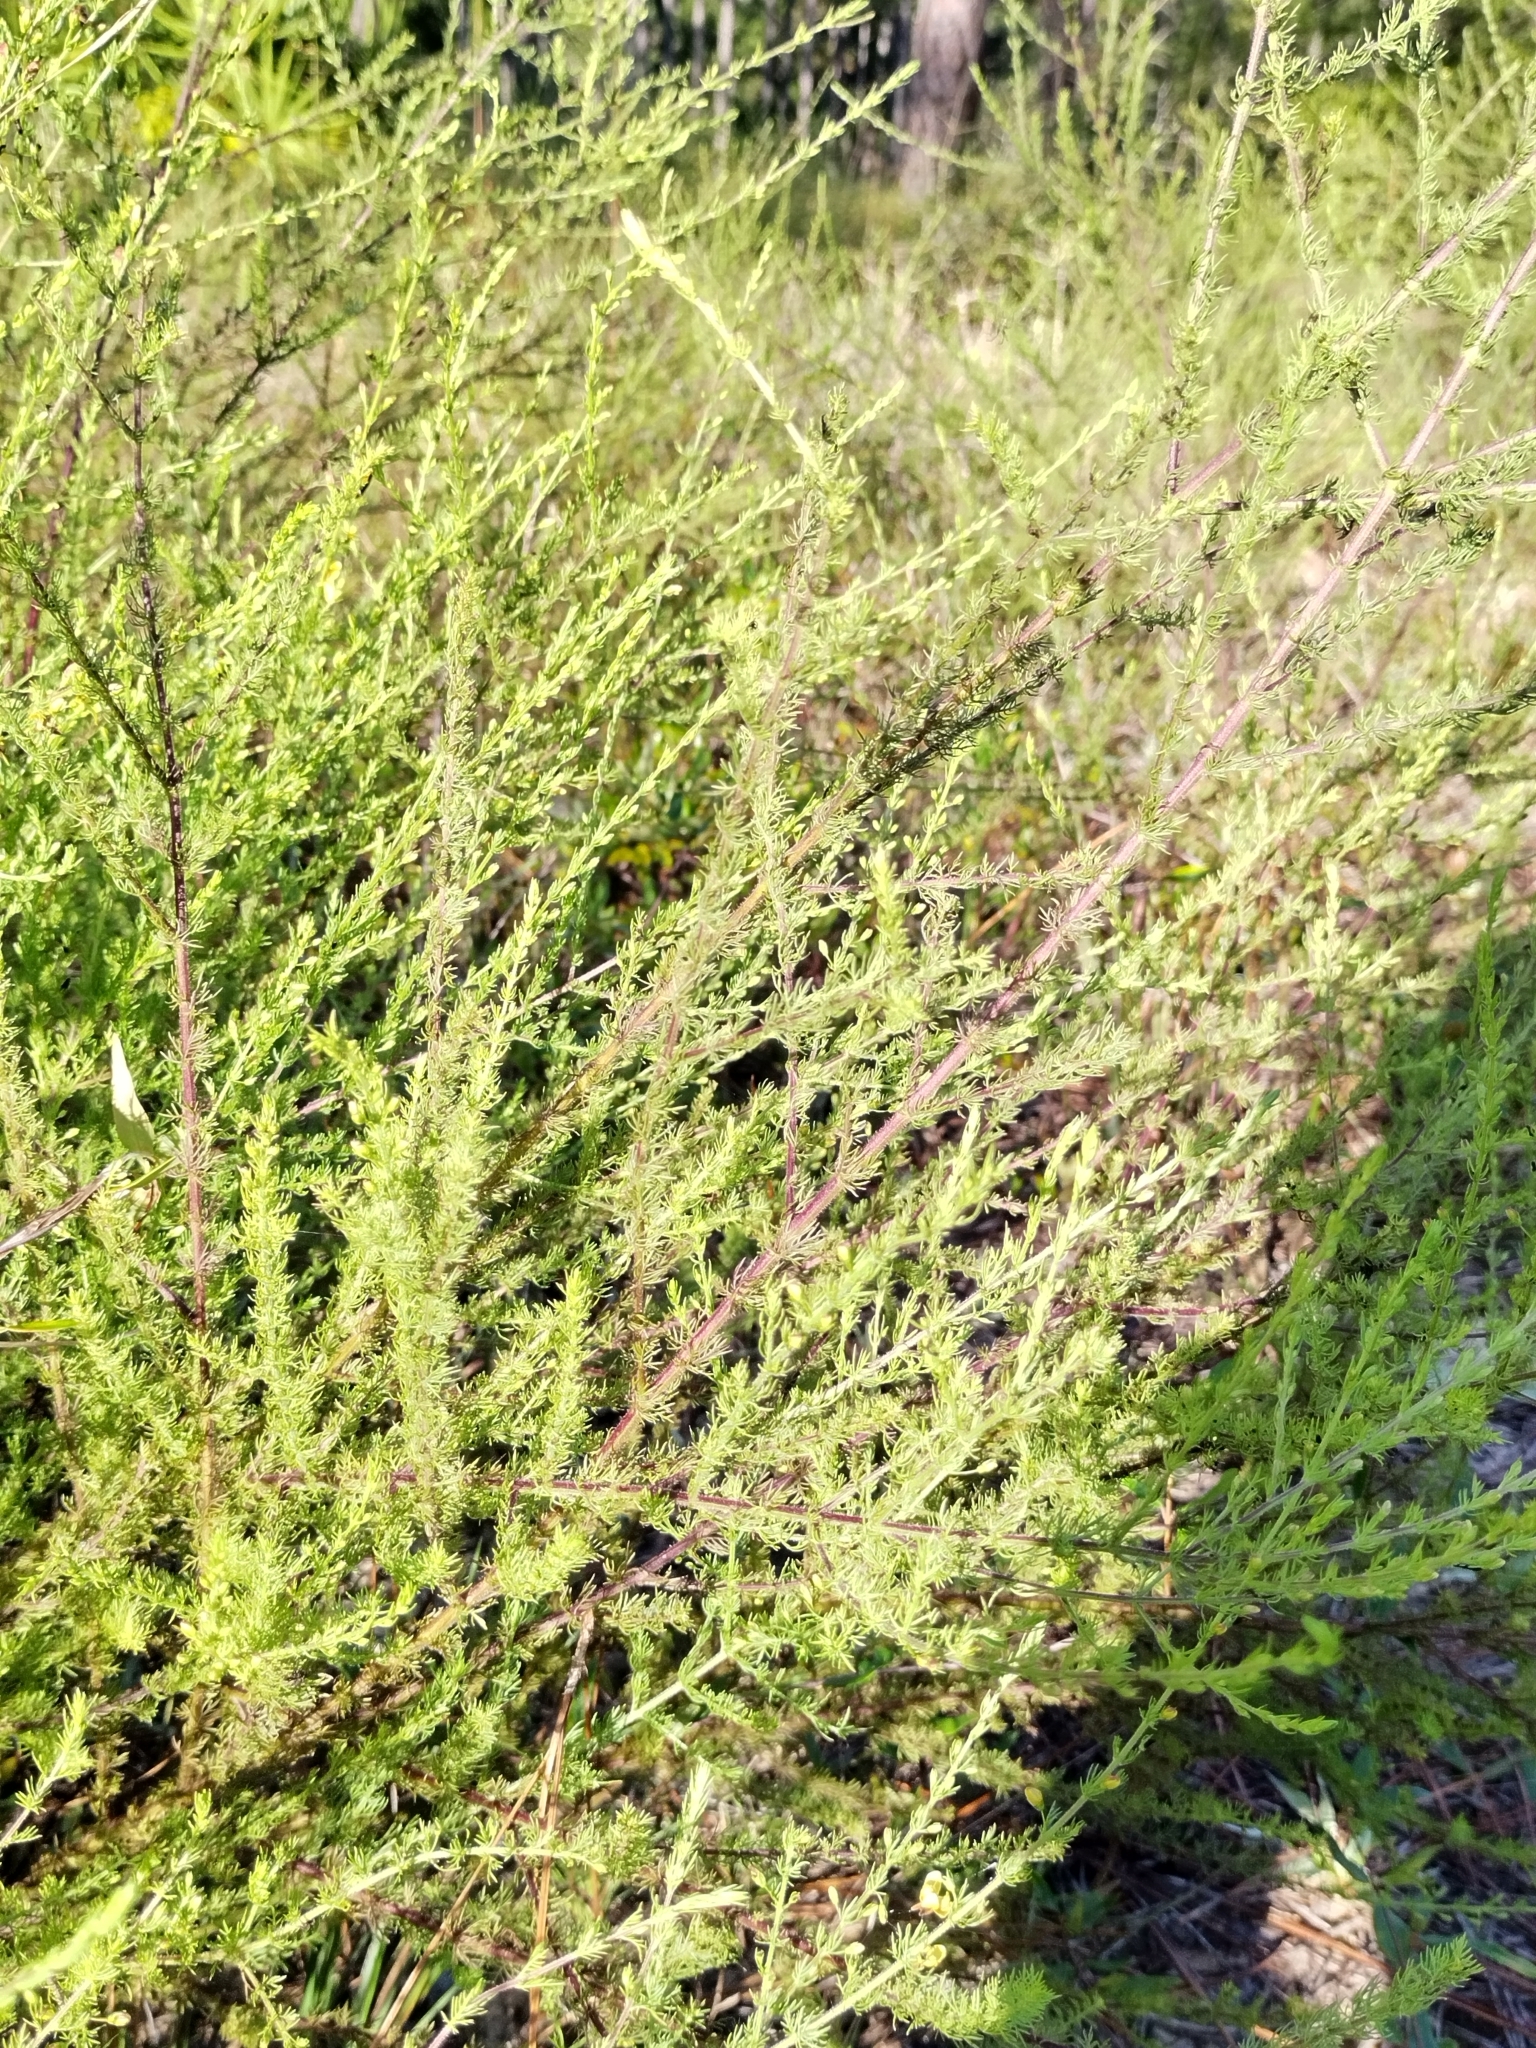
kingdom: Plantae
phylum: Tracheophyta
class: Magnoliopsida
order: Lamiales
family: Orobanchaceae
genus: Seymeria
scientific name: Seymeria cassioides
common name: Yaupon black-senna
